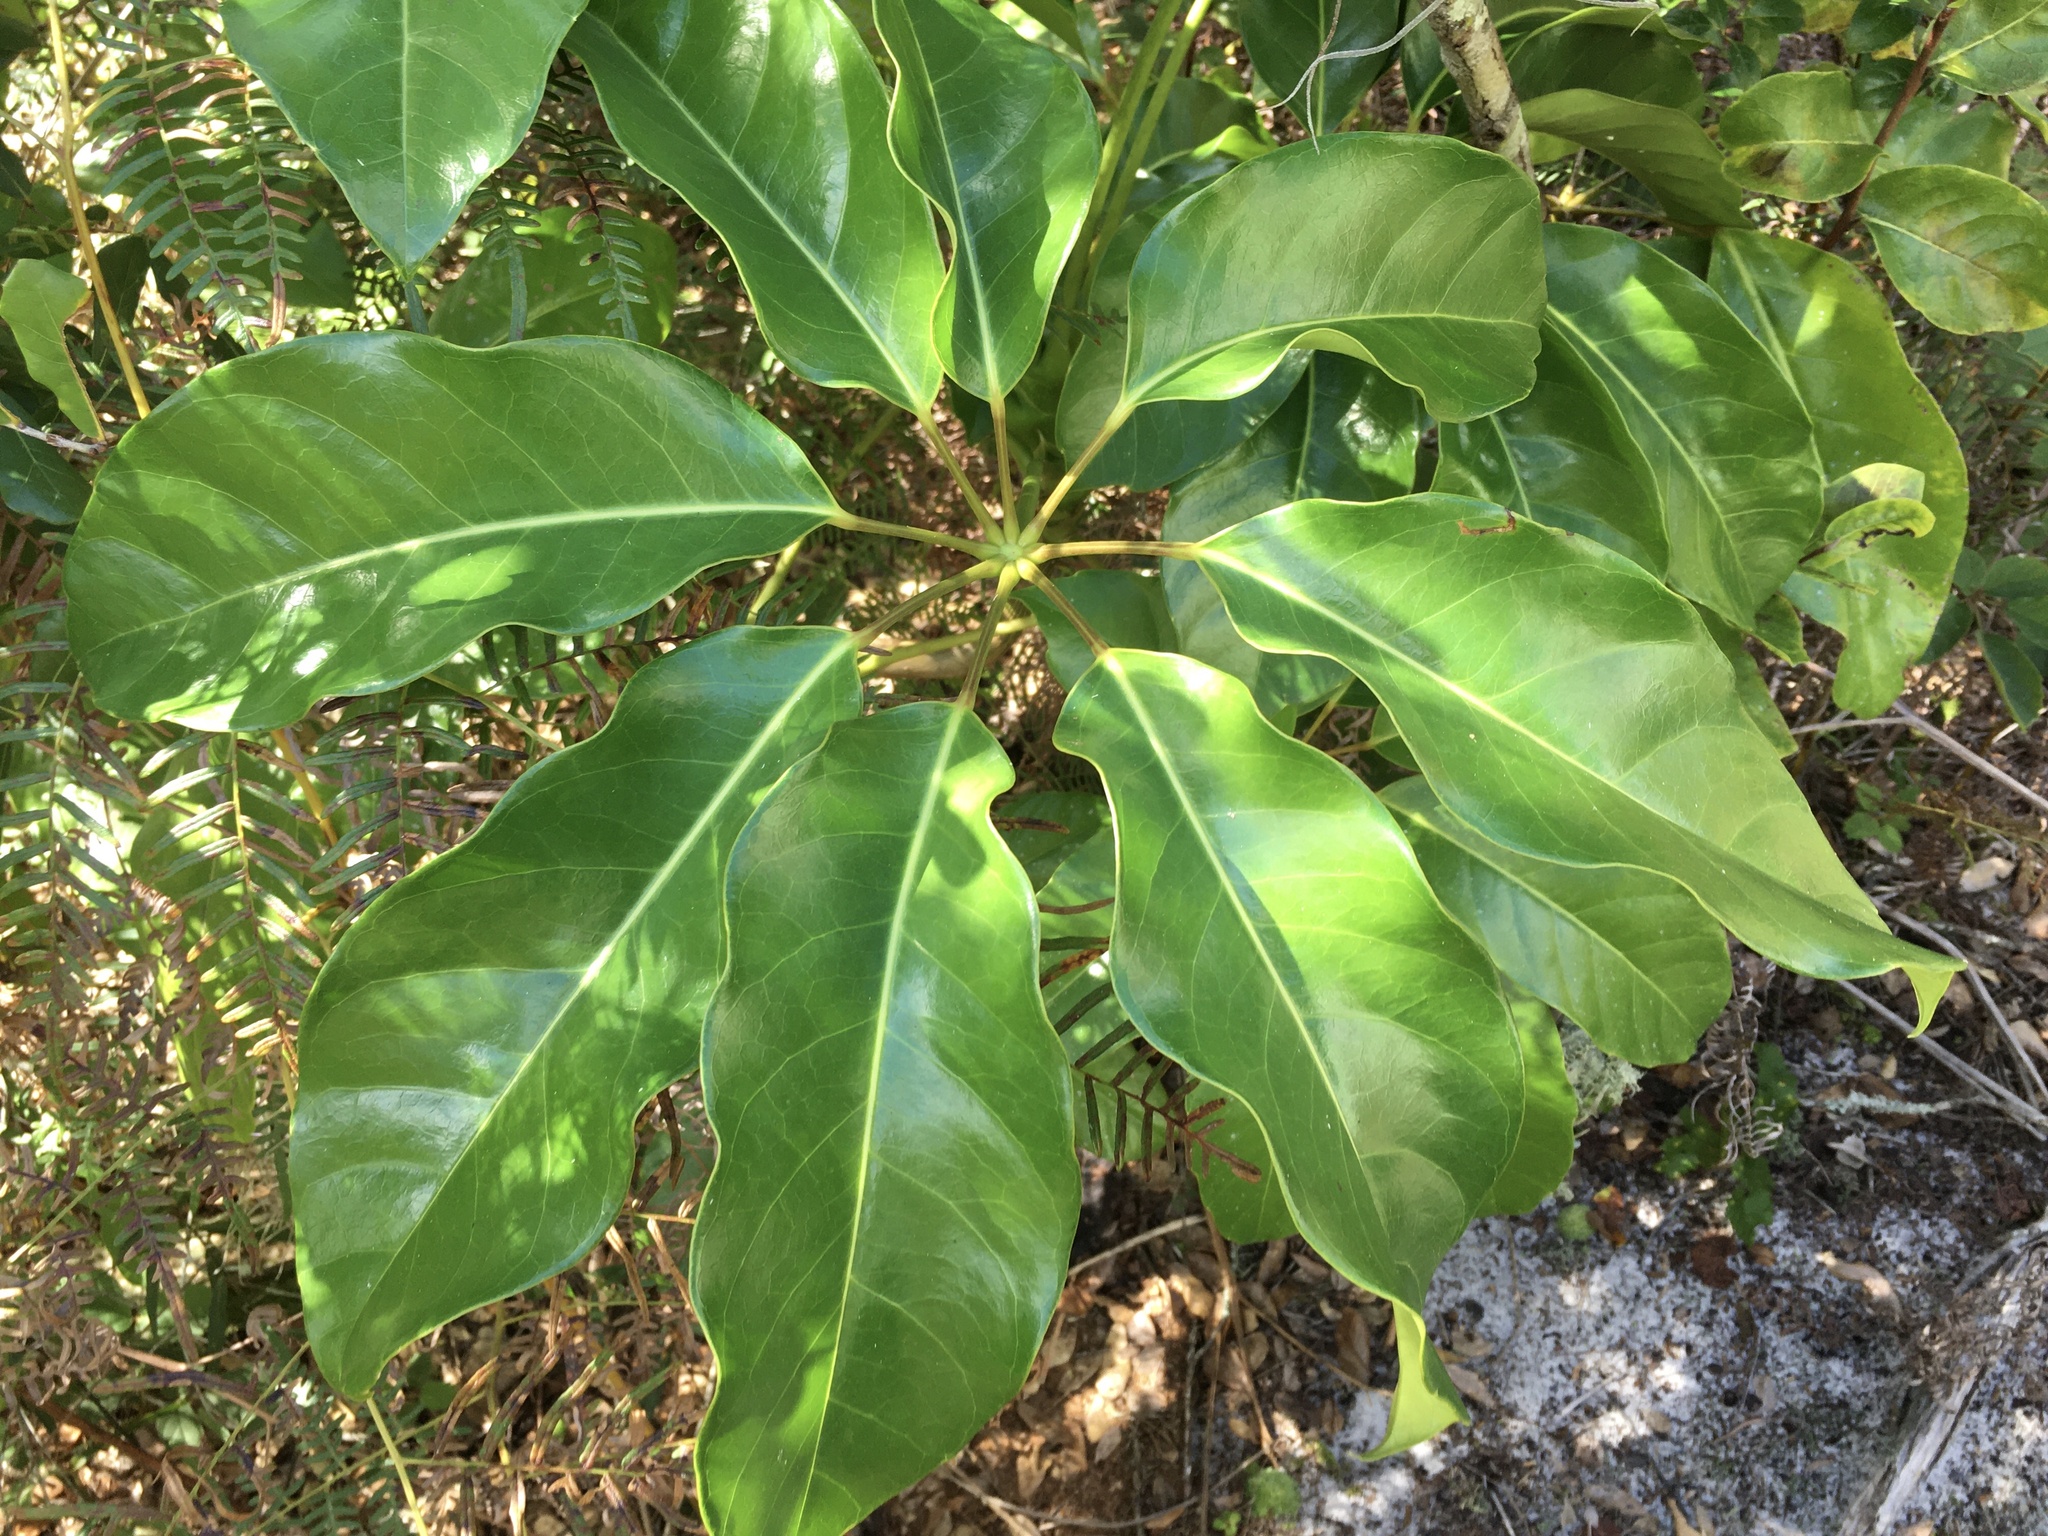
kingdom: Plantae
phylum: Tracheophyta
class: Magnoliopsida
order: Apiales
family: Araliaceae
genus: Heptapleurum
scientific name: Heptapleurum actinophyllum
